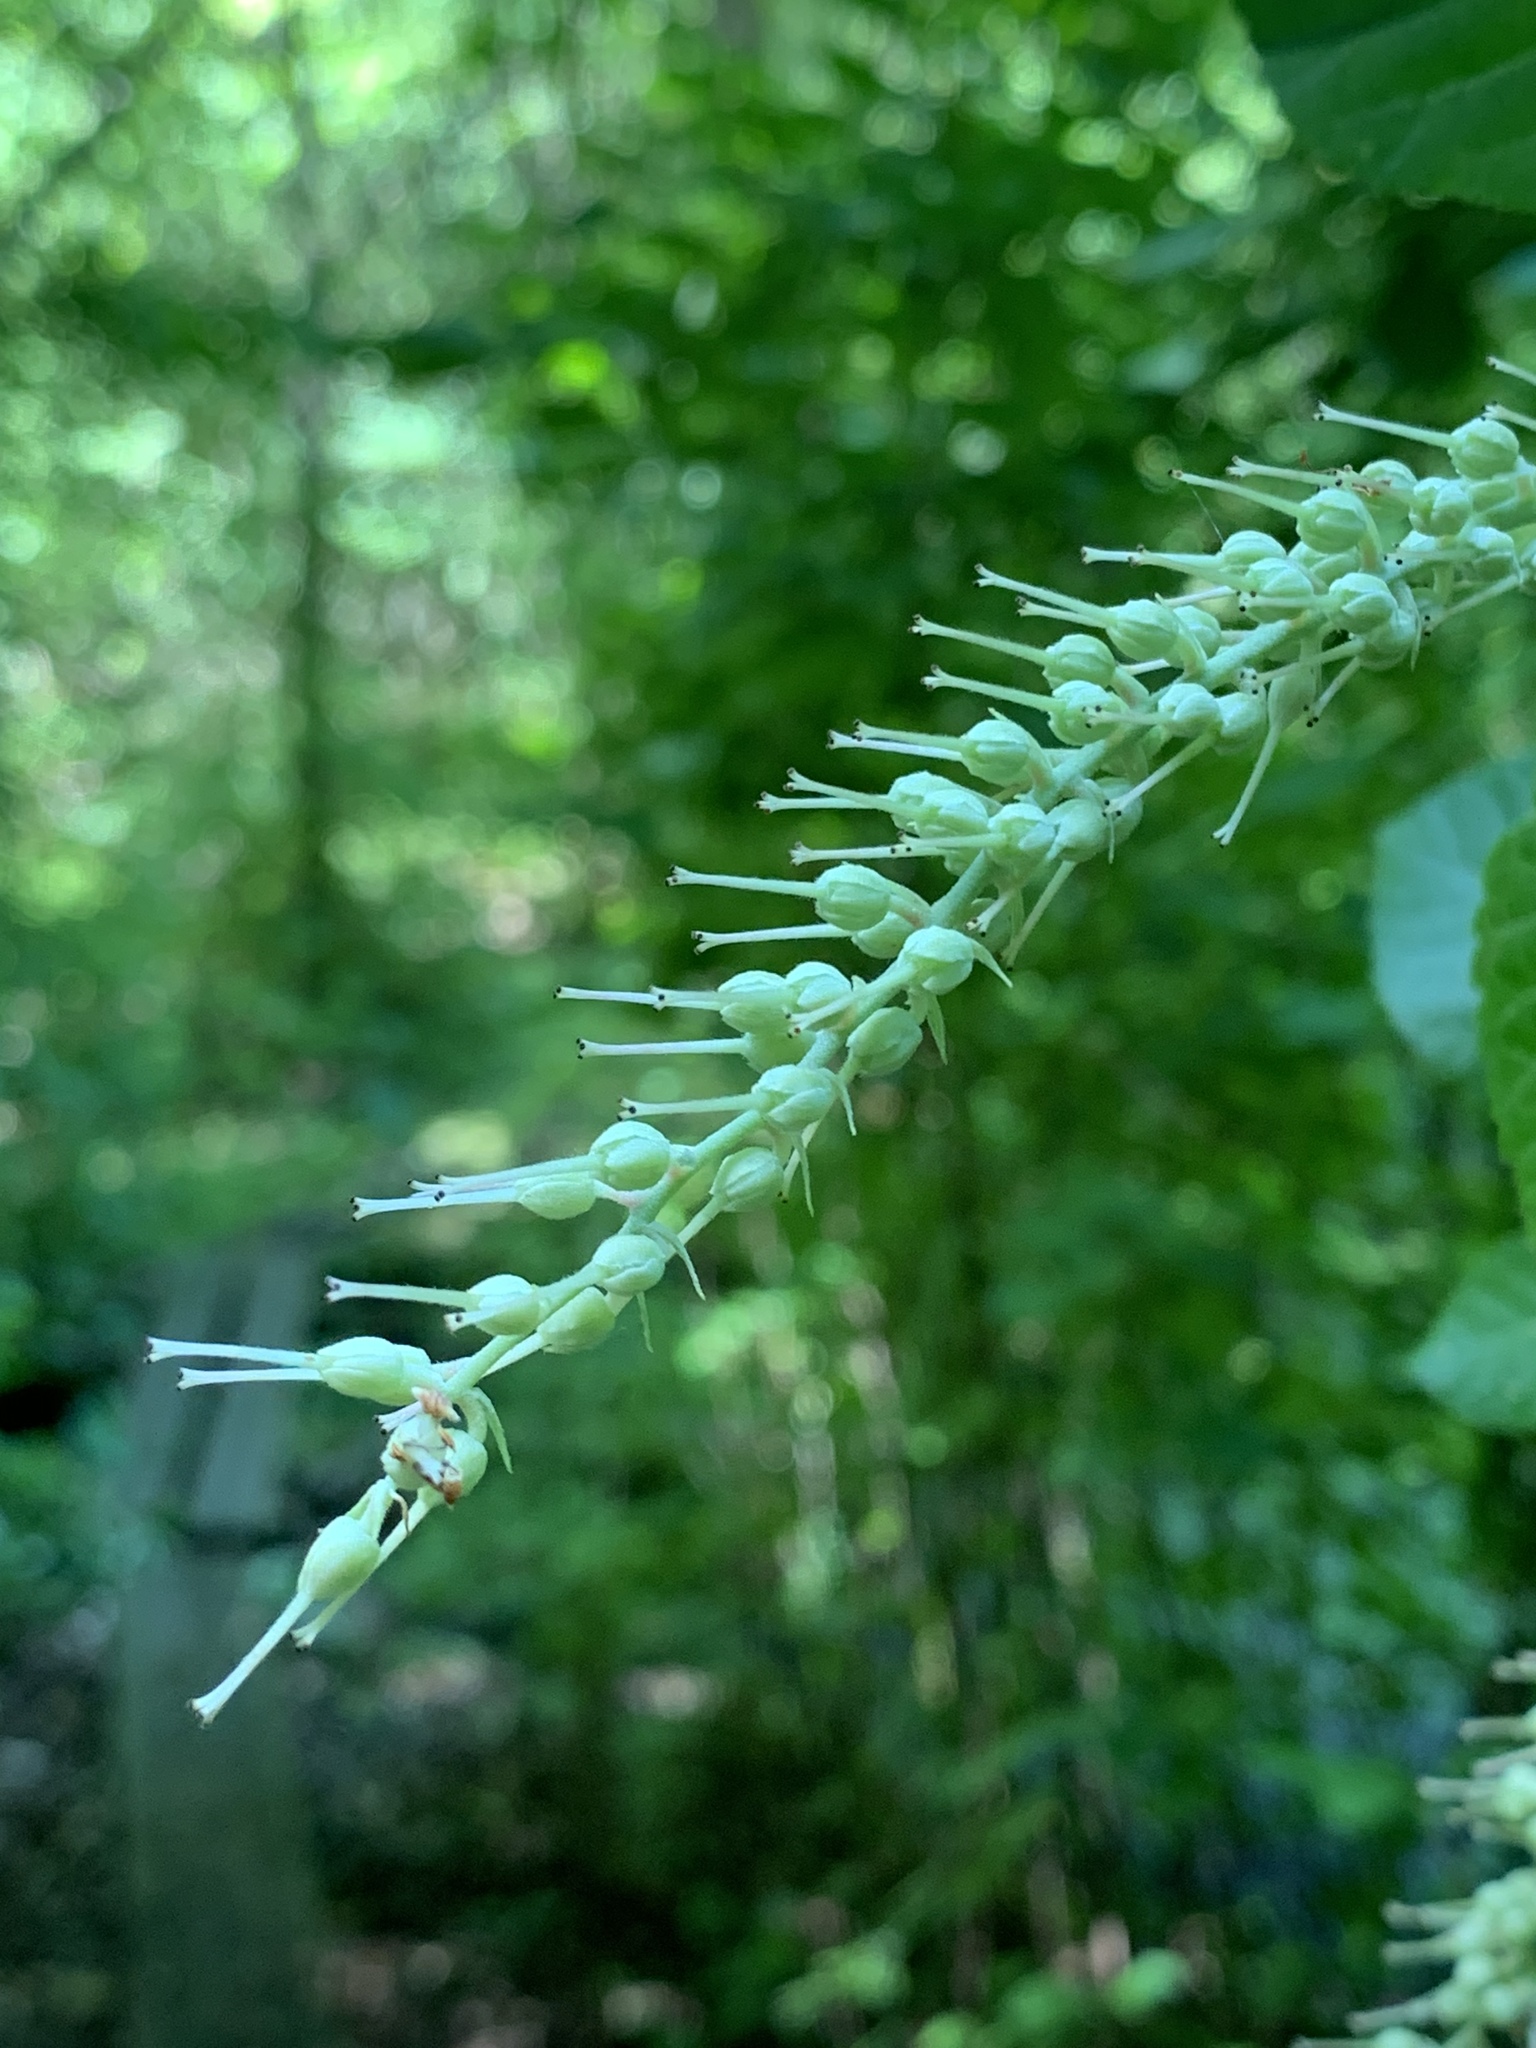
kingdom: Plantae
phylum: Tracheophyta
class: Magnoliopsida
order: Ericales
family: Clethraceae
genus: Clethra
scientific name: Clethra alnifolia
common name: Sweet pepperbush
